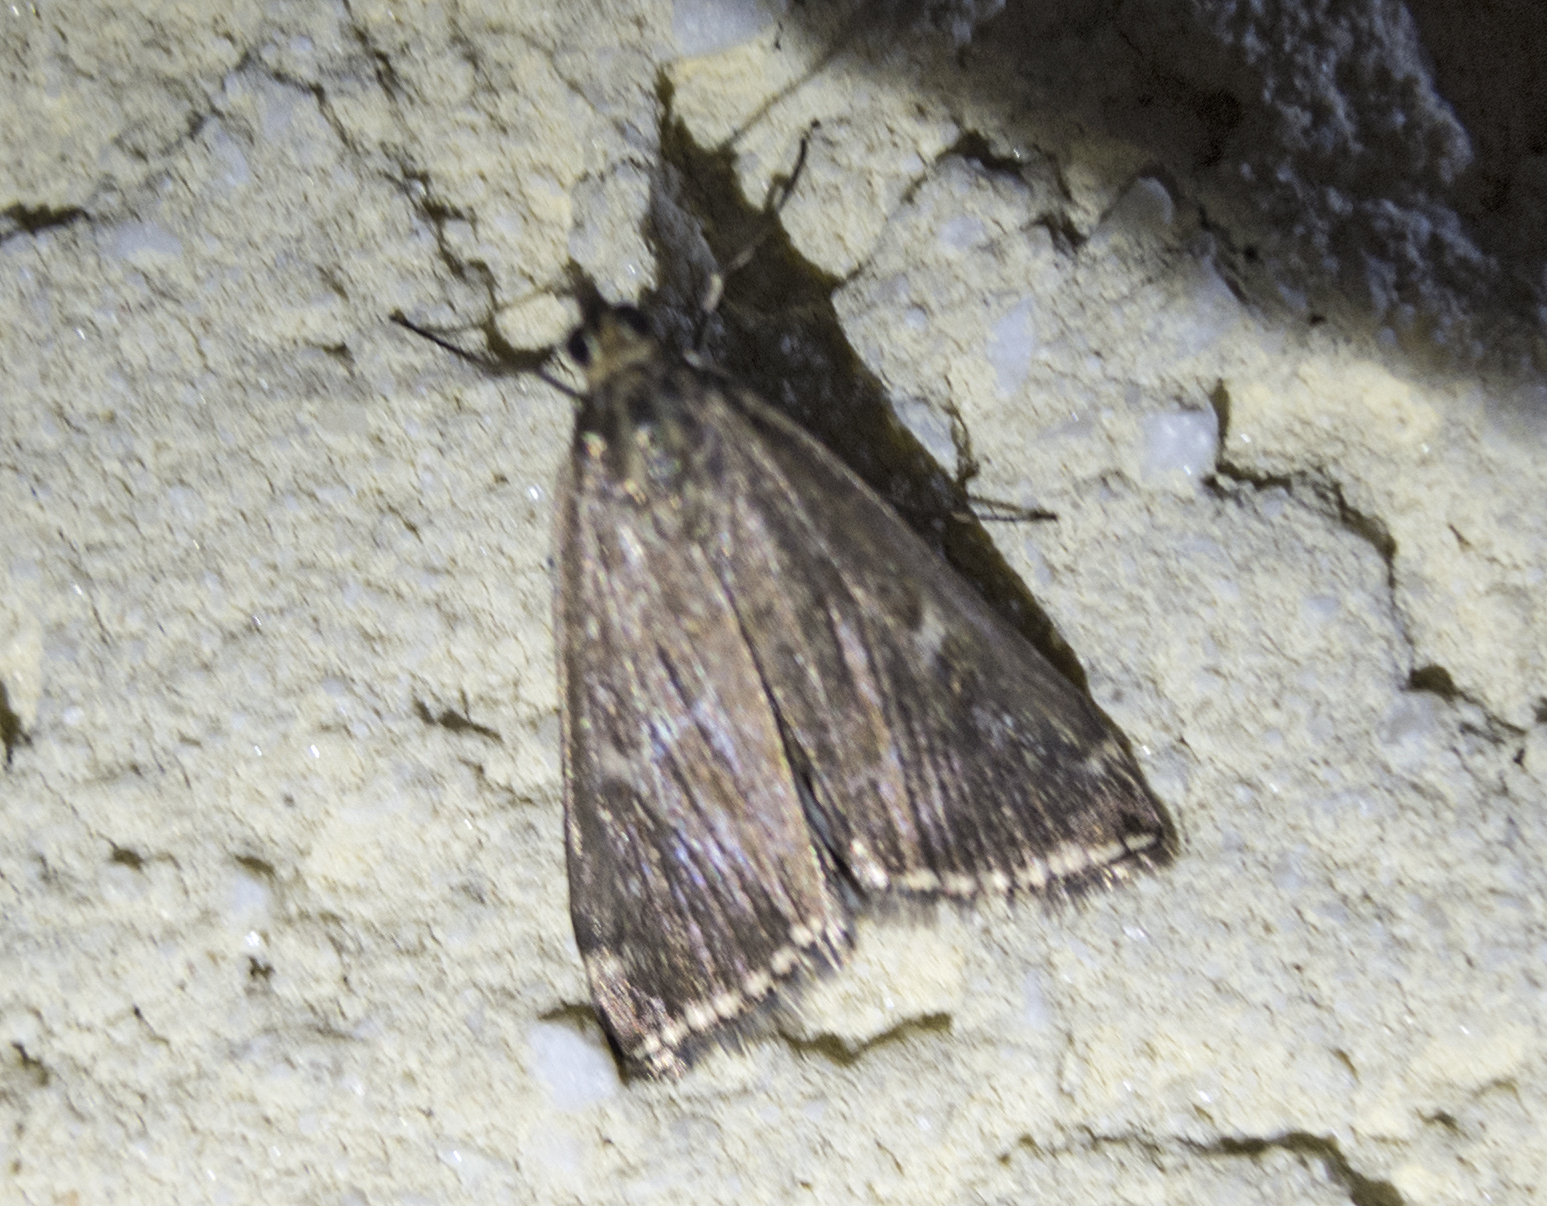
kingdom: Animalia
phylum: Arthropoda
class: Insecta
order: Lepidoptera
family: Crambidae
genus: Loxostege
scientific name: Loxostege sticticalis
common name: Crambid moth
